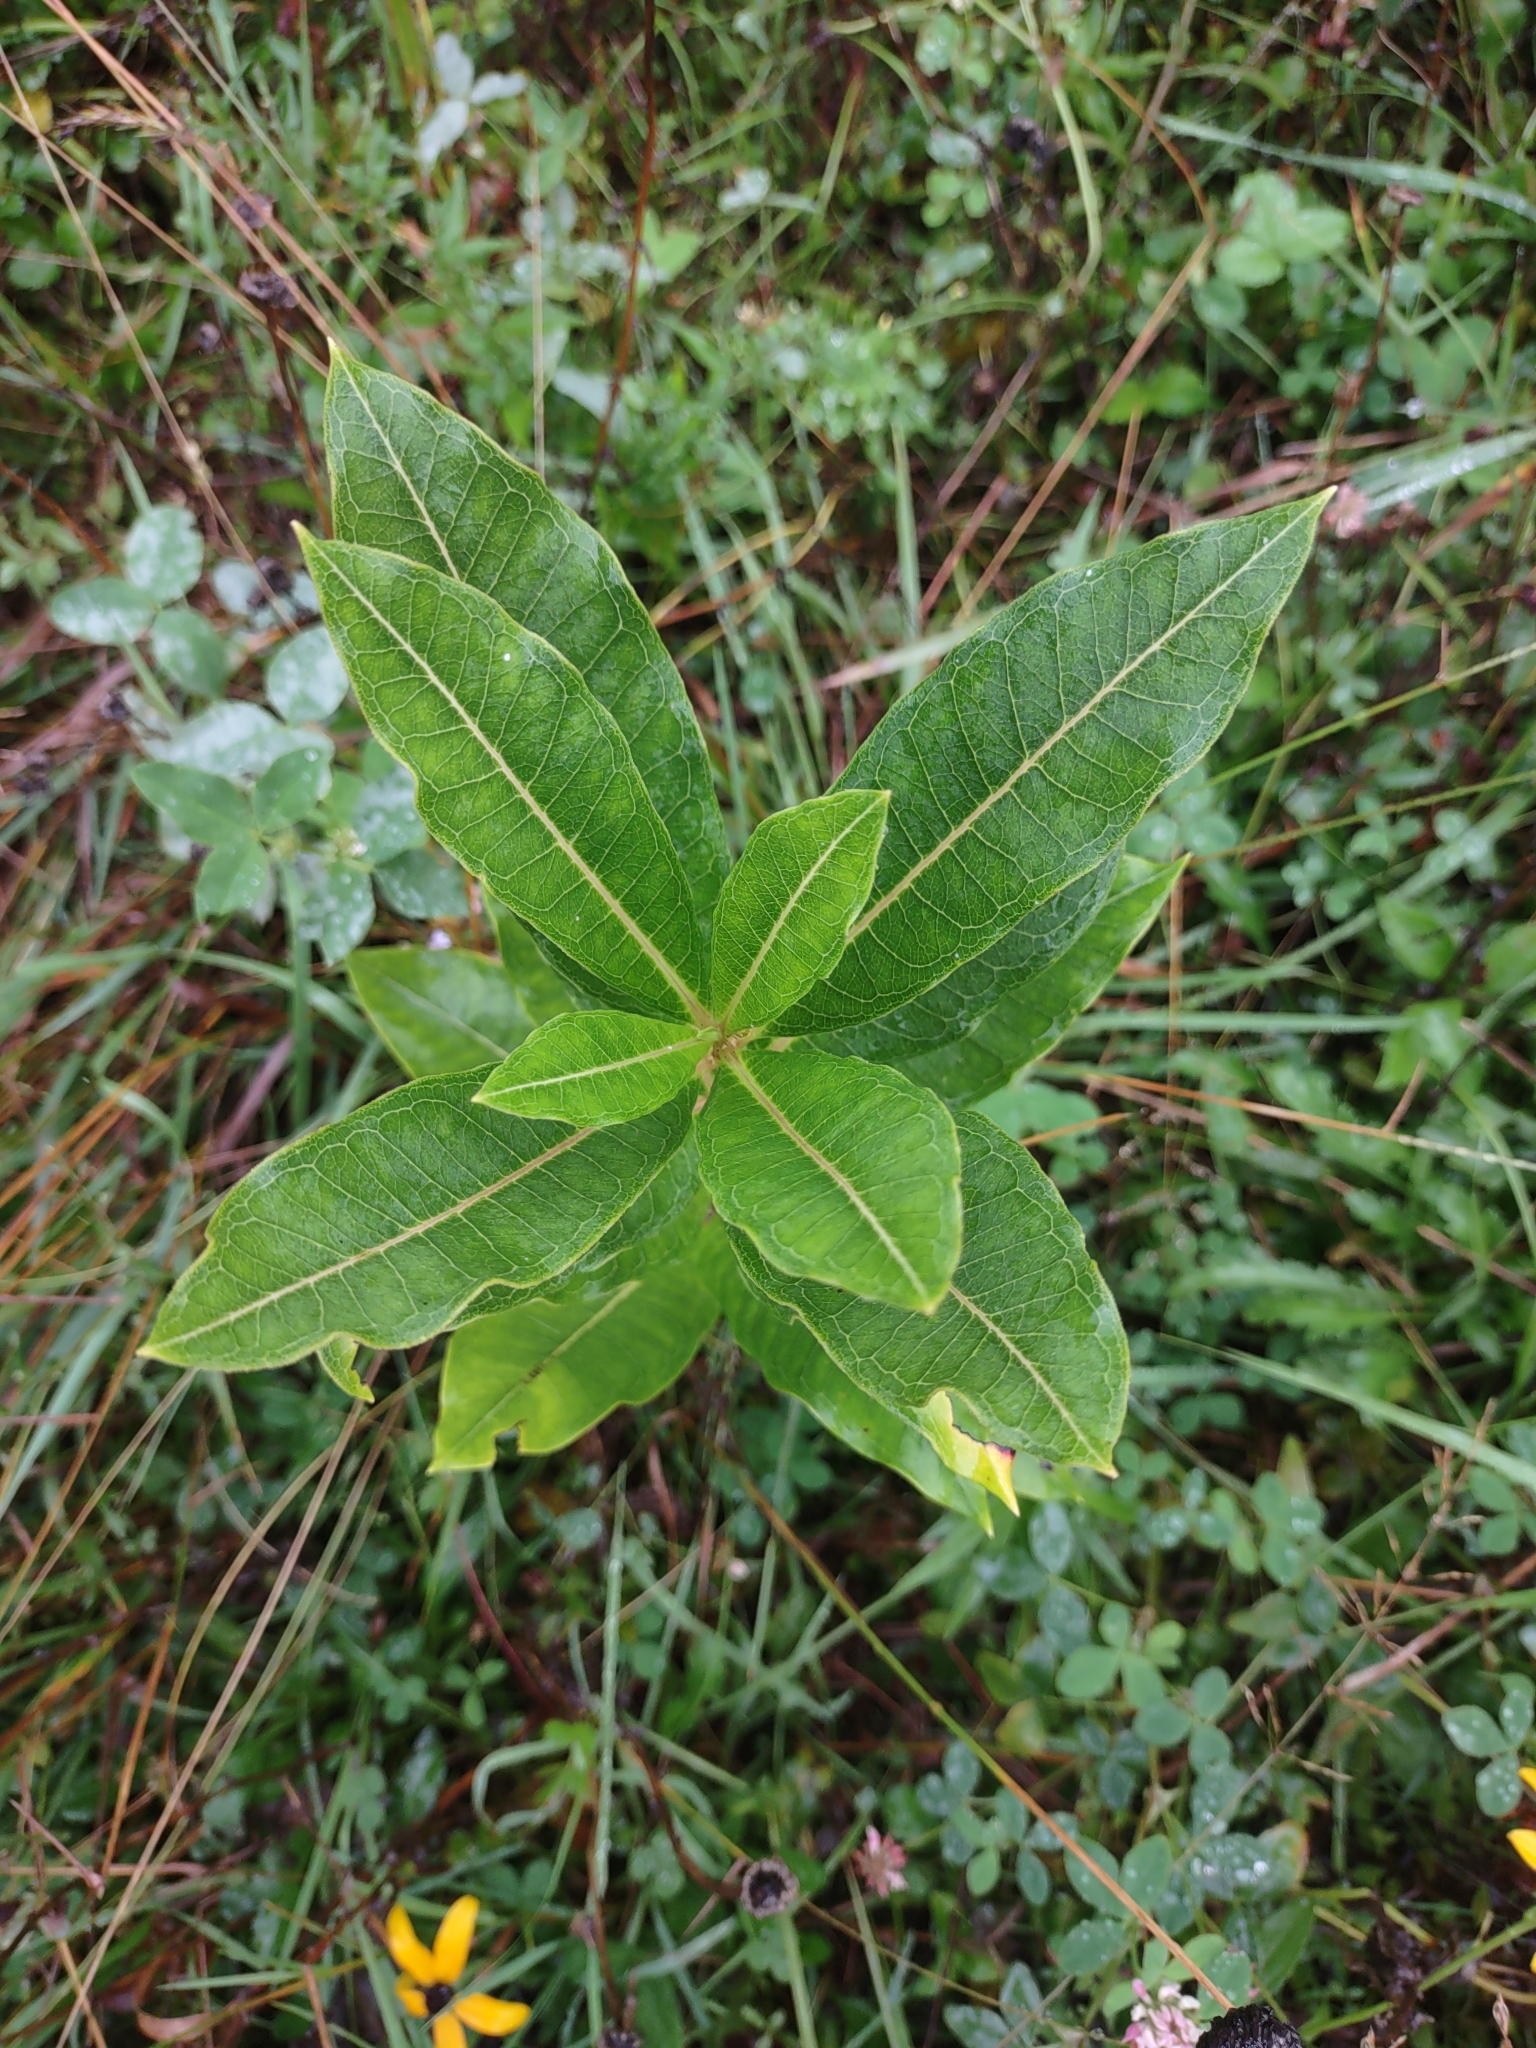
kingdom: Plantae
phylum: Tracheophyta
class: Magnoliopsida
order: Gentianales
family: Apocynaceae
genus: Asclepias
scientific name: Asclepias syriaca
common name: Common milkweed
